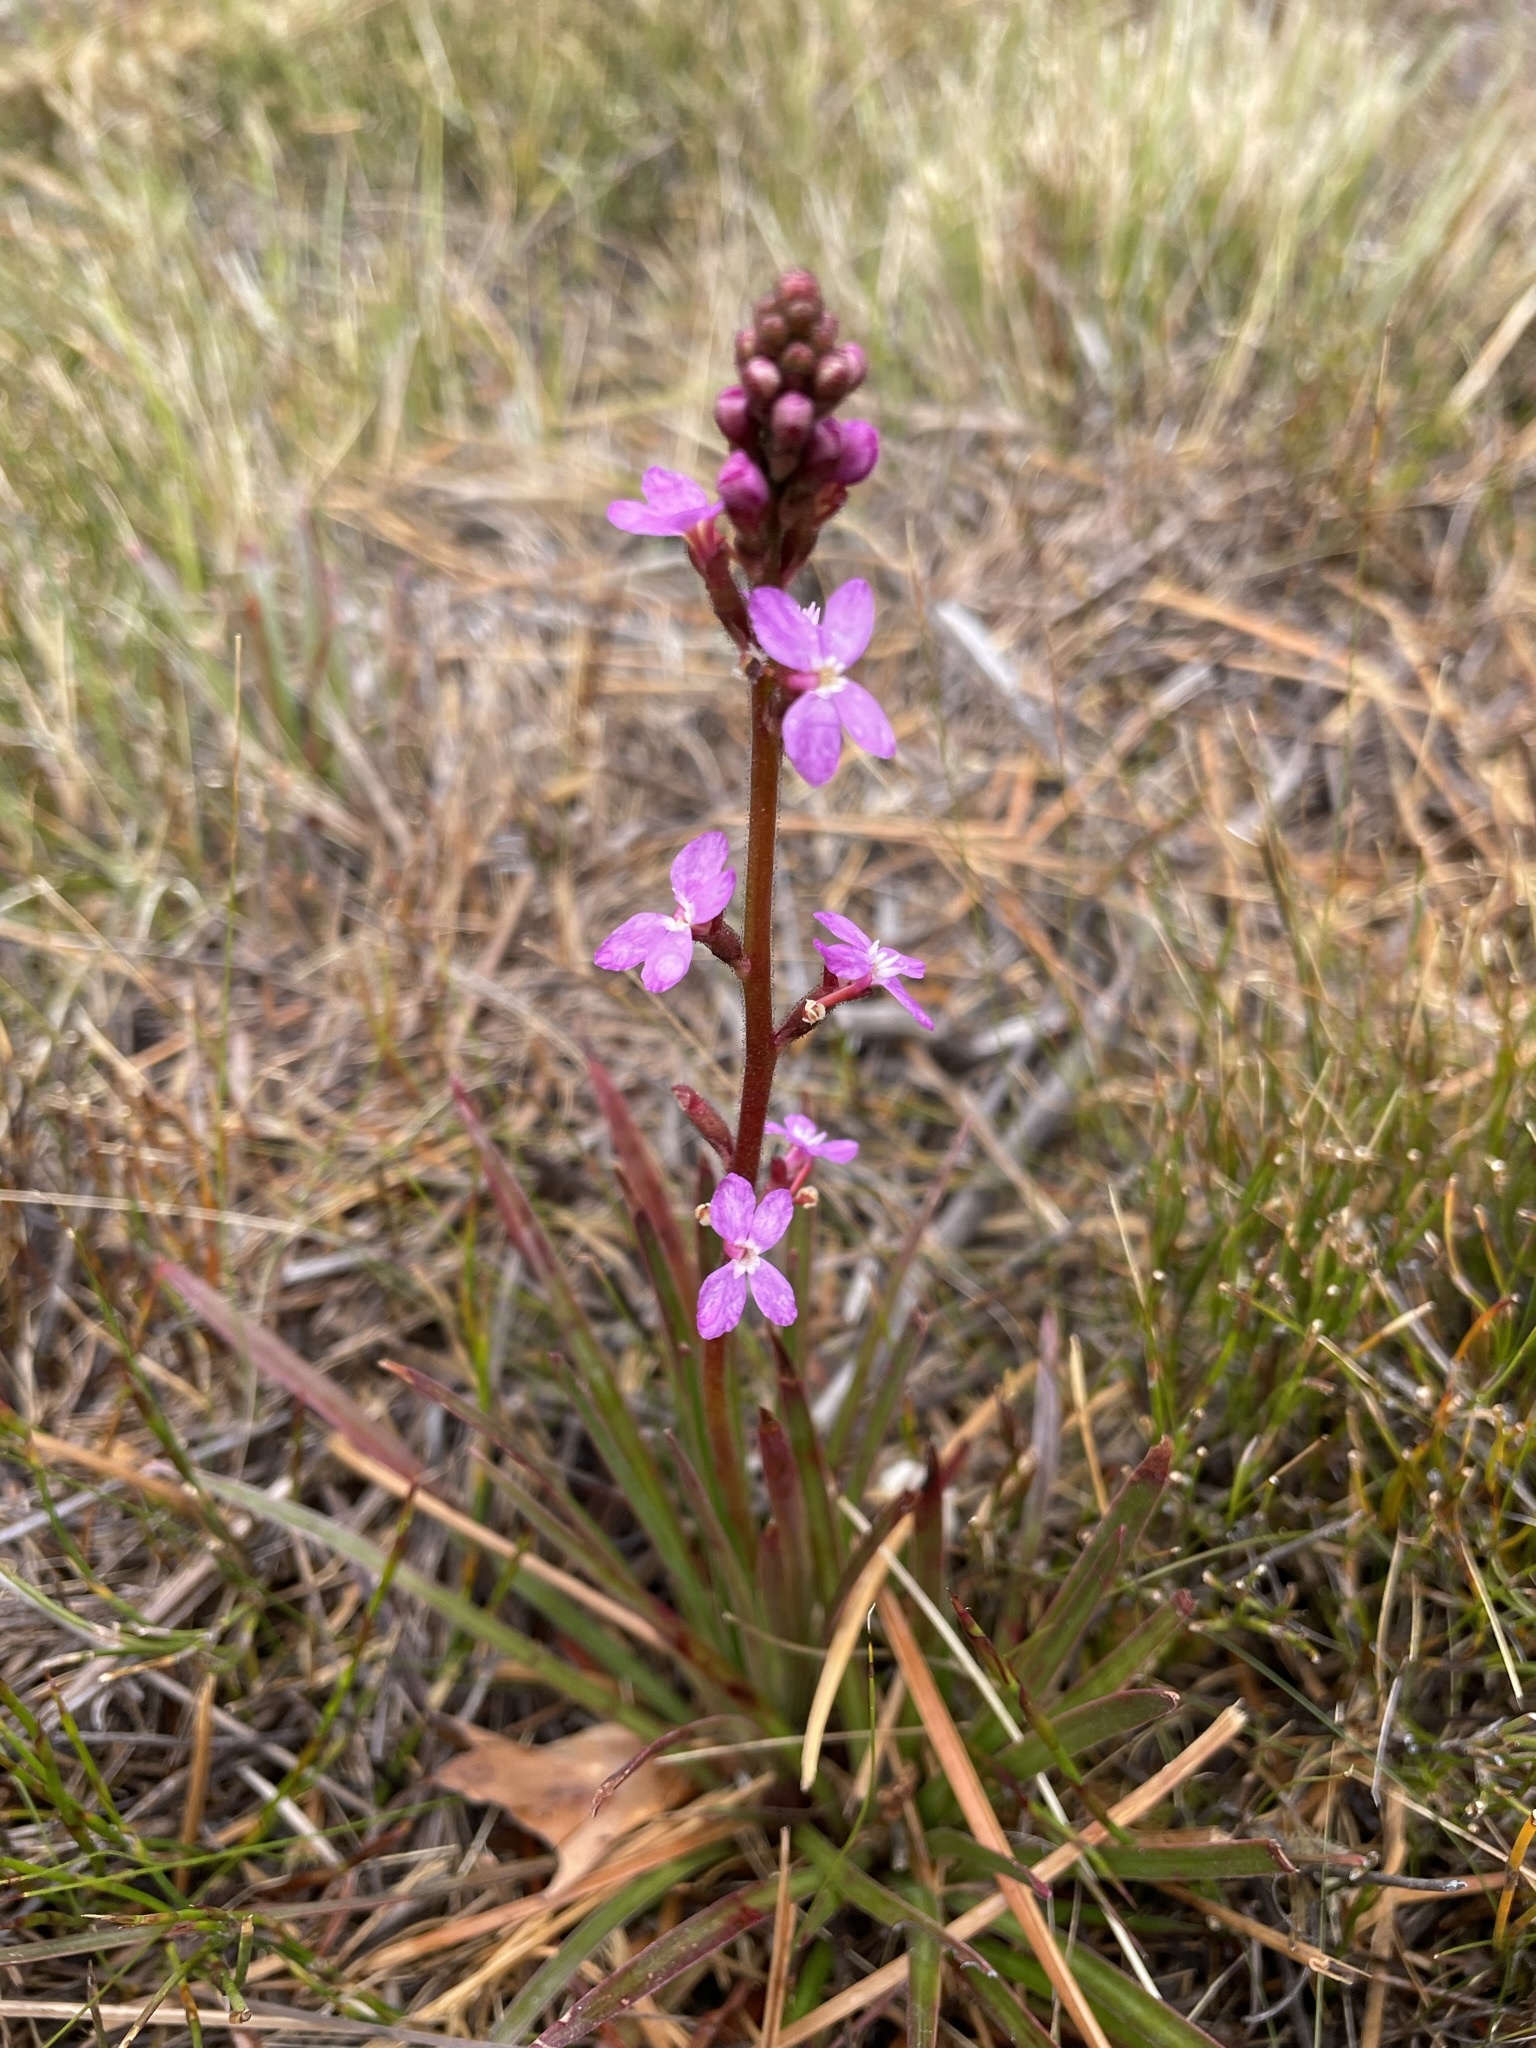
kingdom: Plantae
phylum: Tracheophyta
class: Magnoliopsida
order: Asterales
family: Stylidiaceae
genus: Stylidium
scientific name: Stylidium graminifolium
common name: Grass triggerplant
